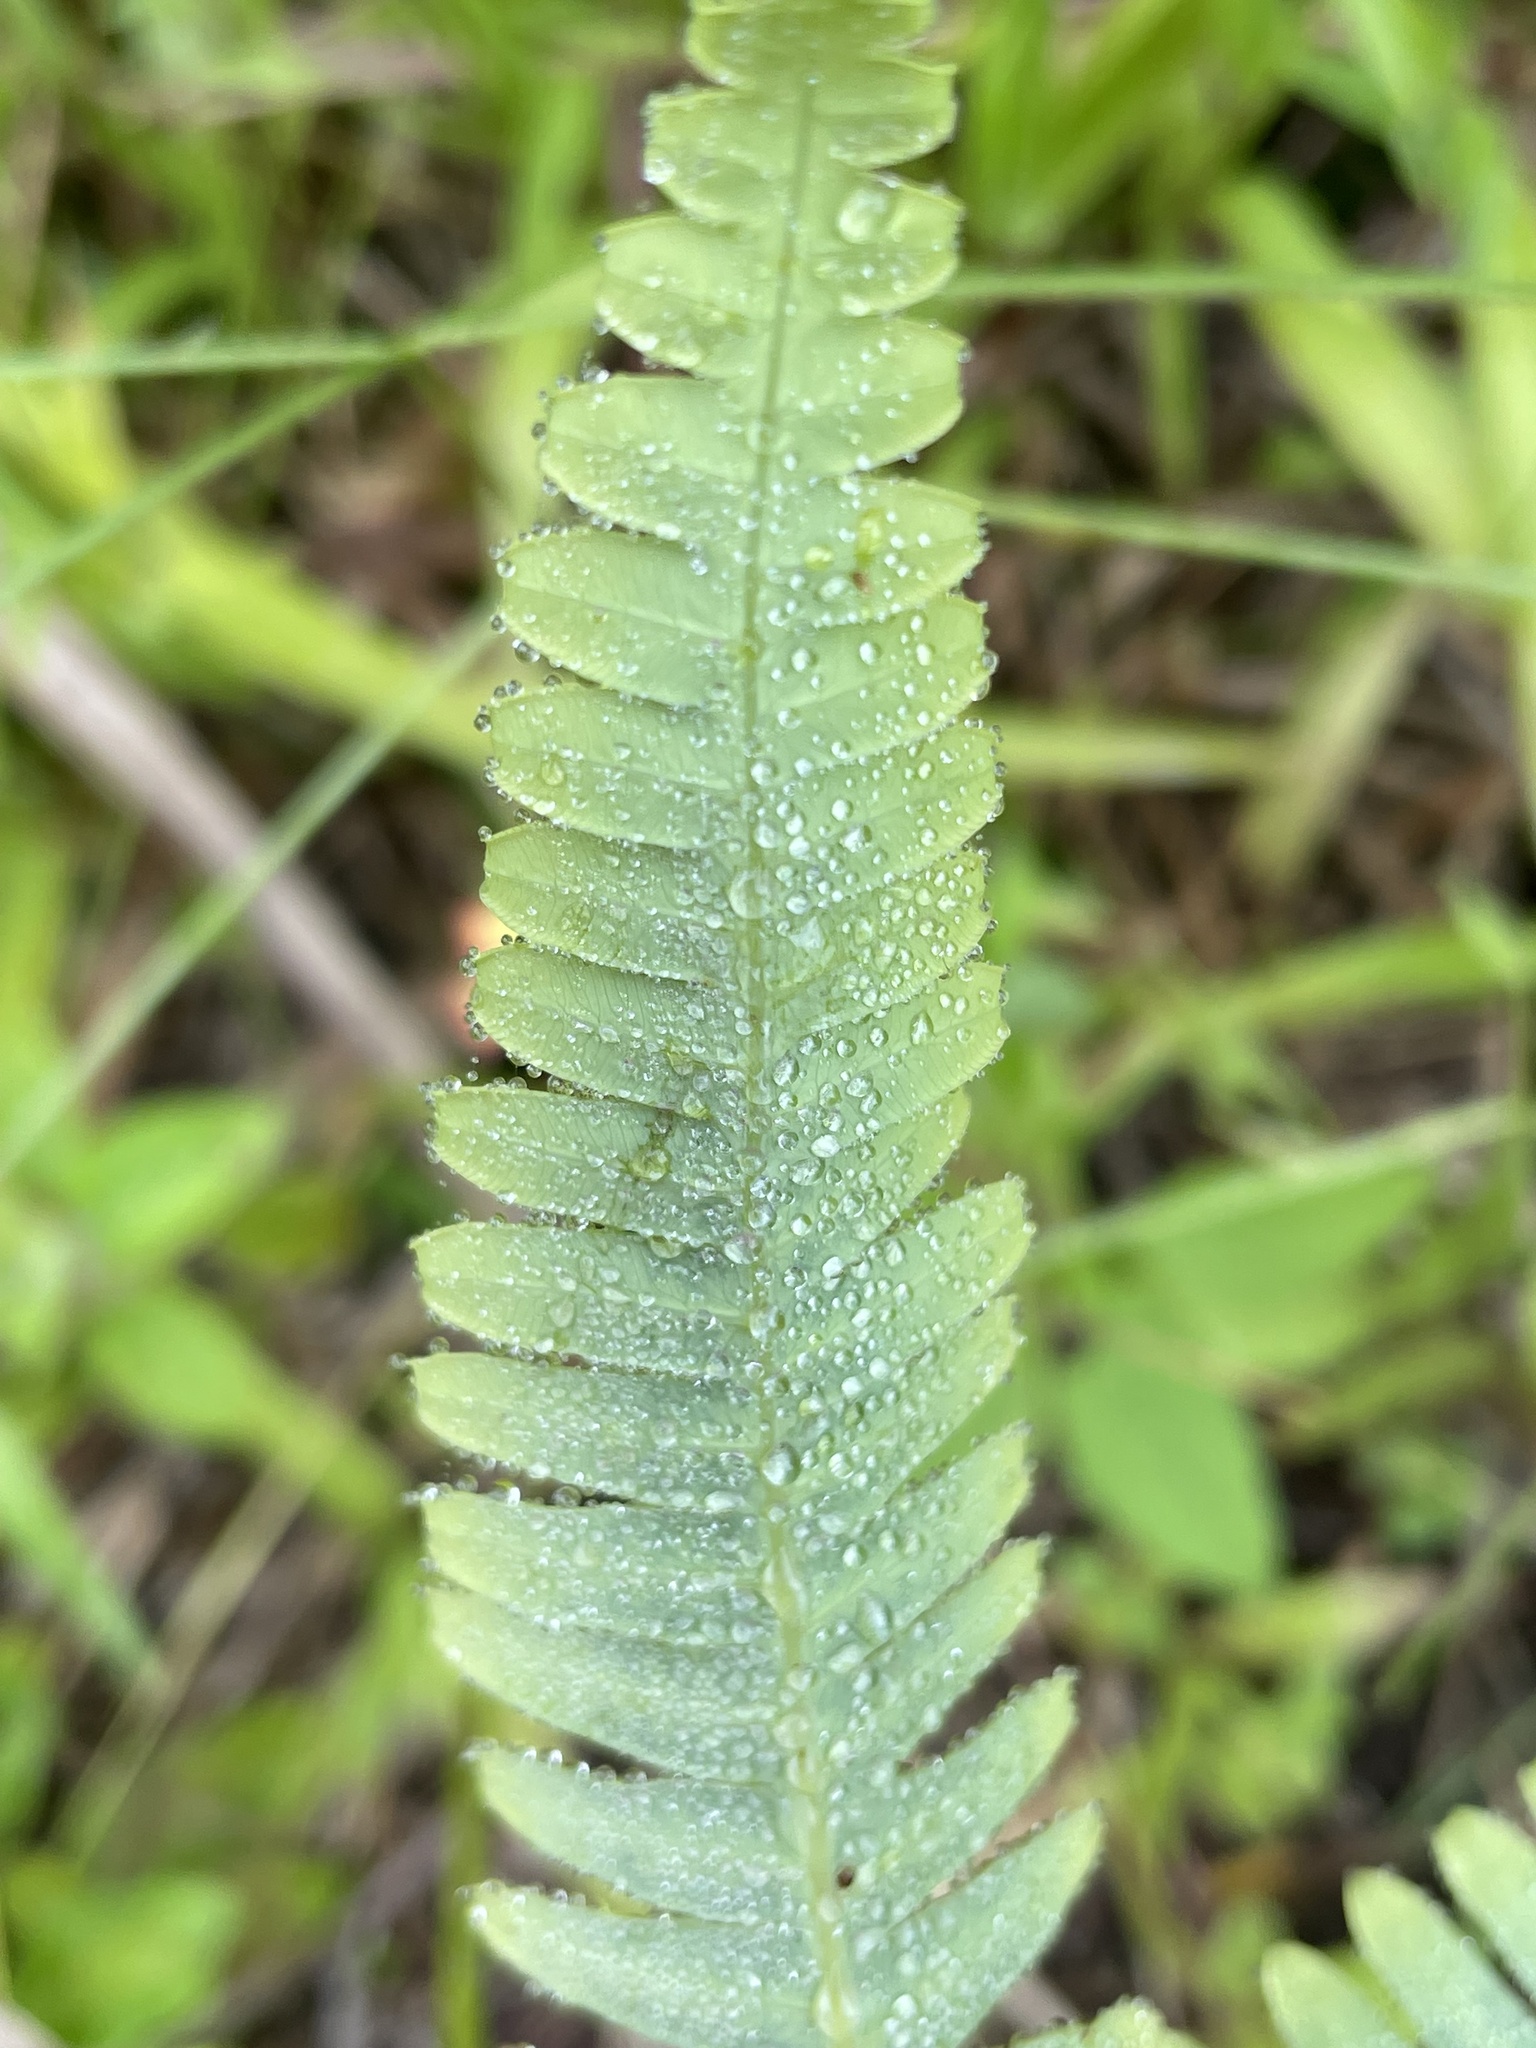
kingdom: Plantae
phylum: Tracheophyta
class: Polypodiopsida
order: Gleicheniales
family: Gleicheniaceae
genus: Dicranopteris
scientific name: Dicranopteris linearis
